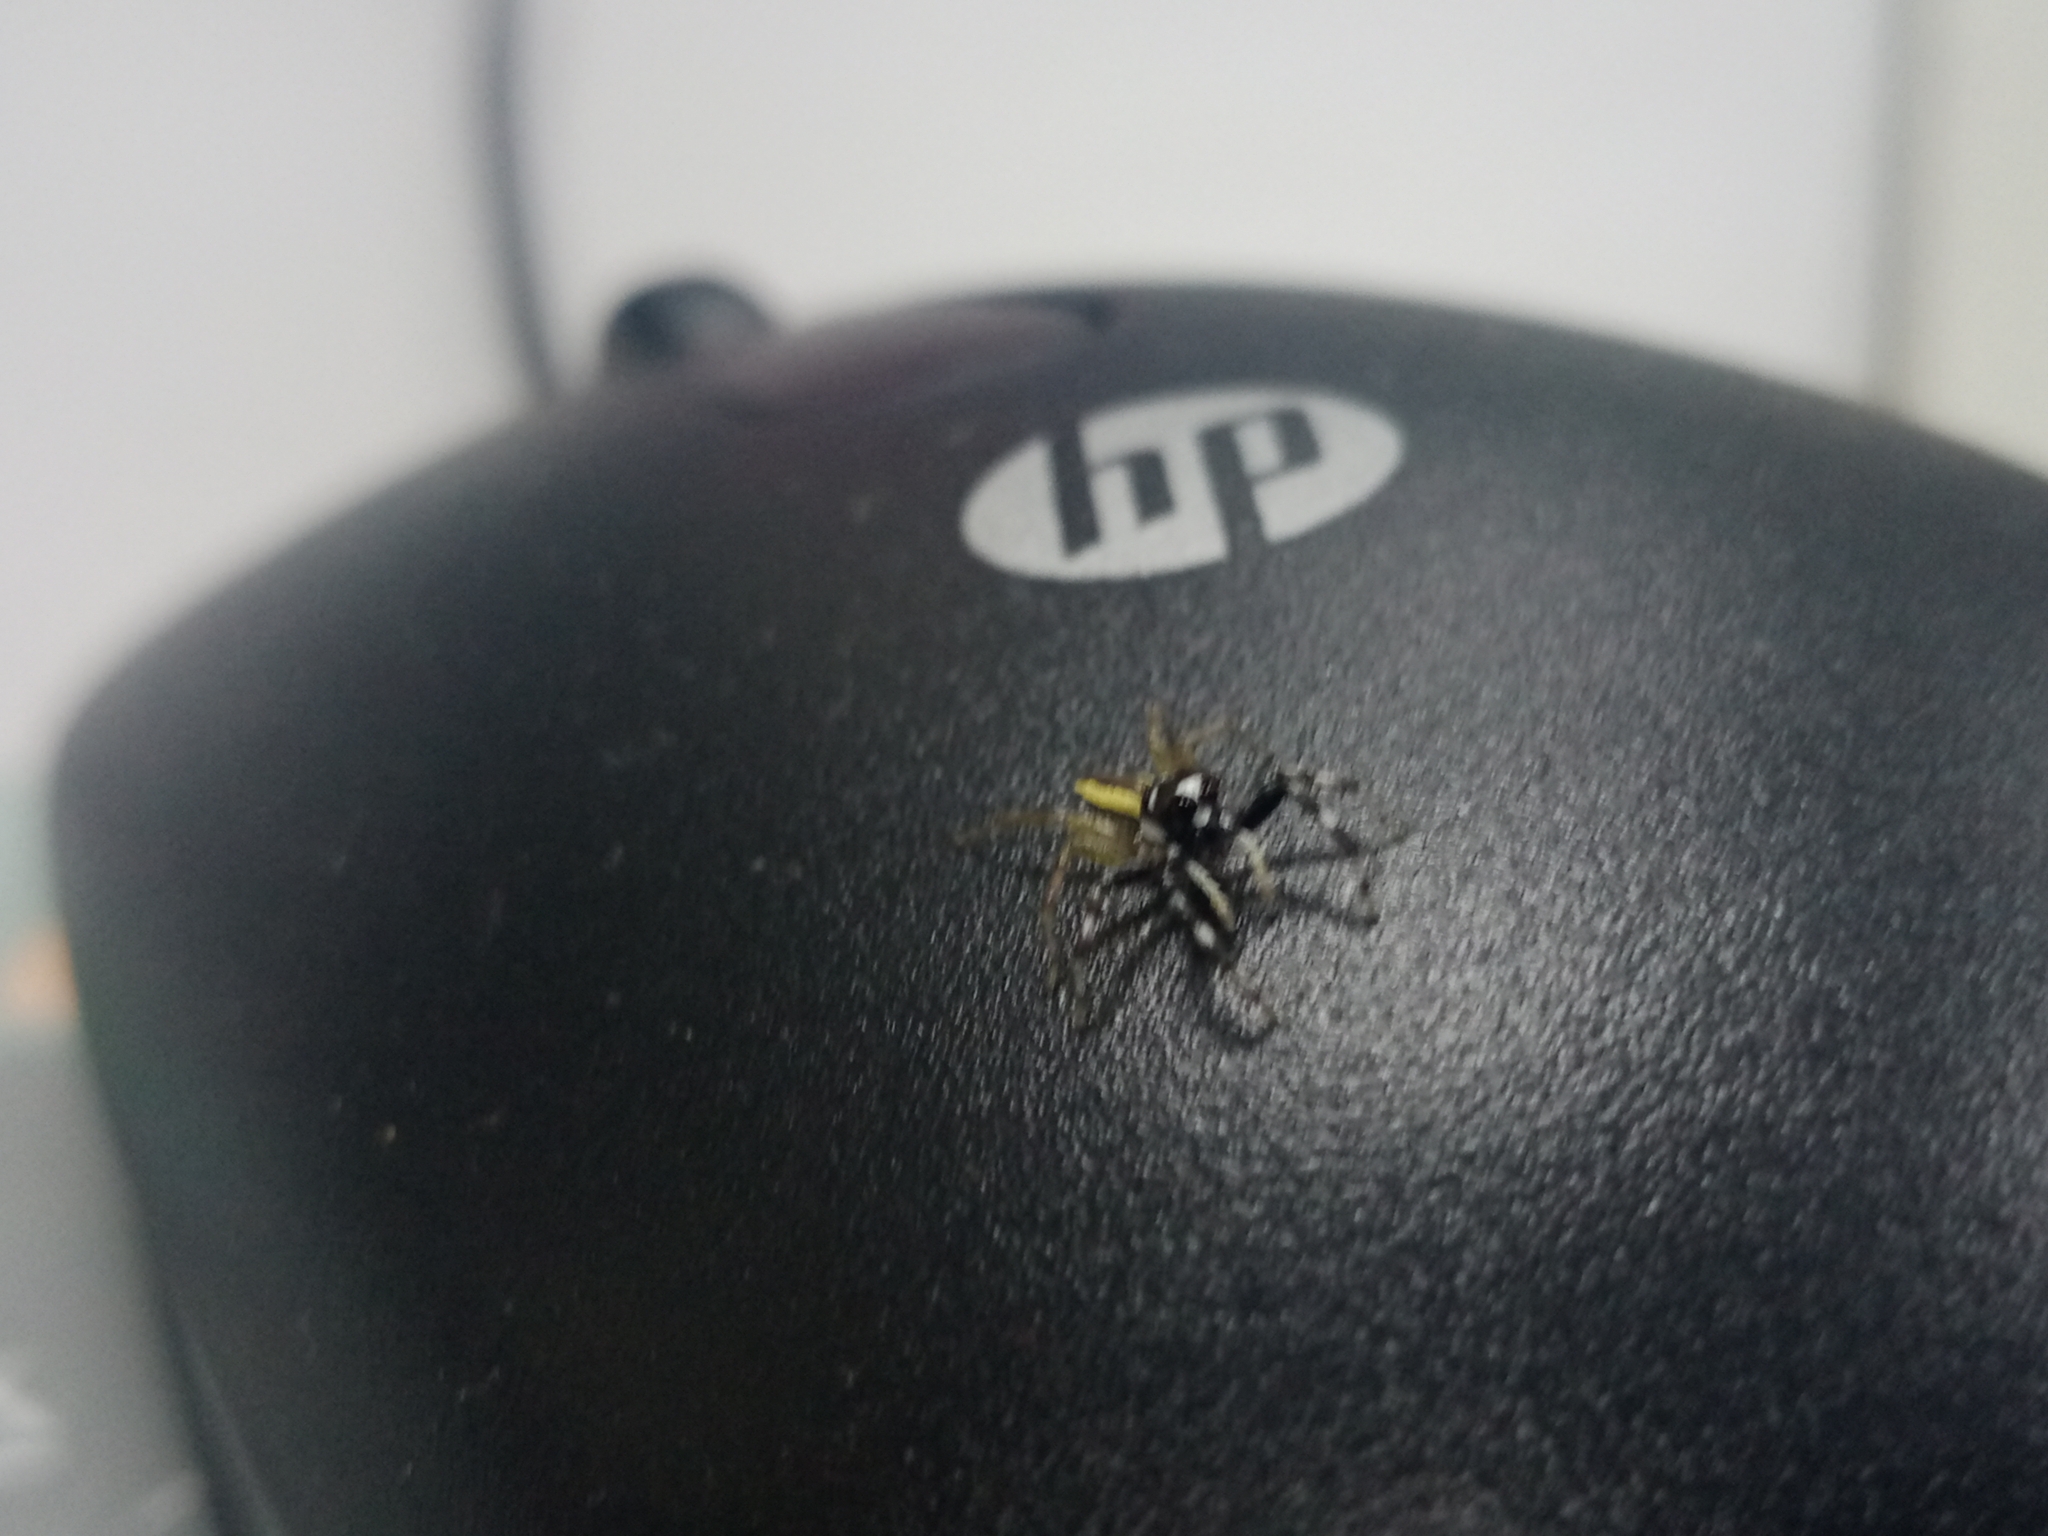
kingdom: Animalia
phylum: Arthropoda
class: Arachnida
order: Araneae
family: Salticidae
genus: Phintelloides
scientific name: Phintelloides versicolor
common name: Jumping spider
